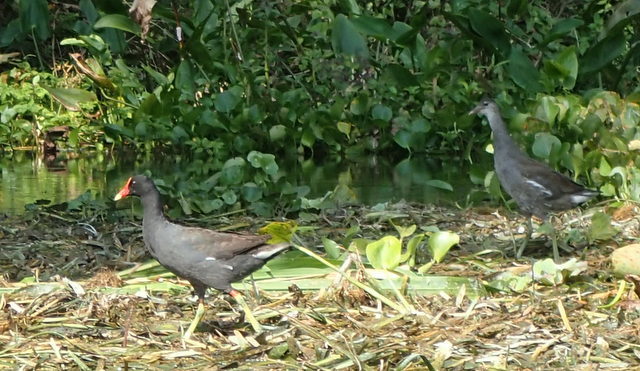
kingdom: Animalia
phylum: Chordata
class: Aves
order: Gruiformes
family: Rallidae
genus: Gallinula
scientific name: Gallinula chloropus
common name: Common moorhen
